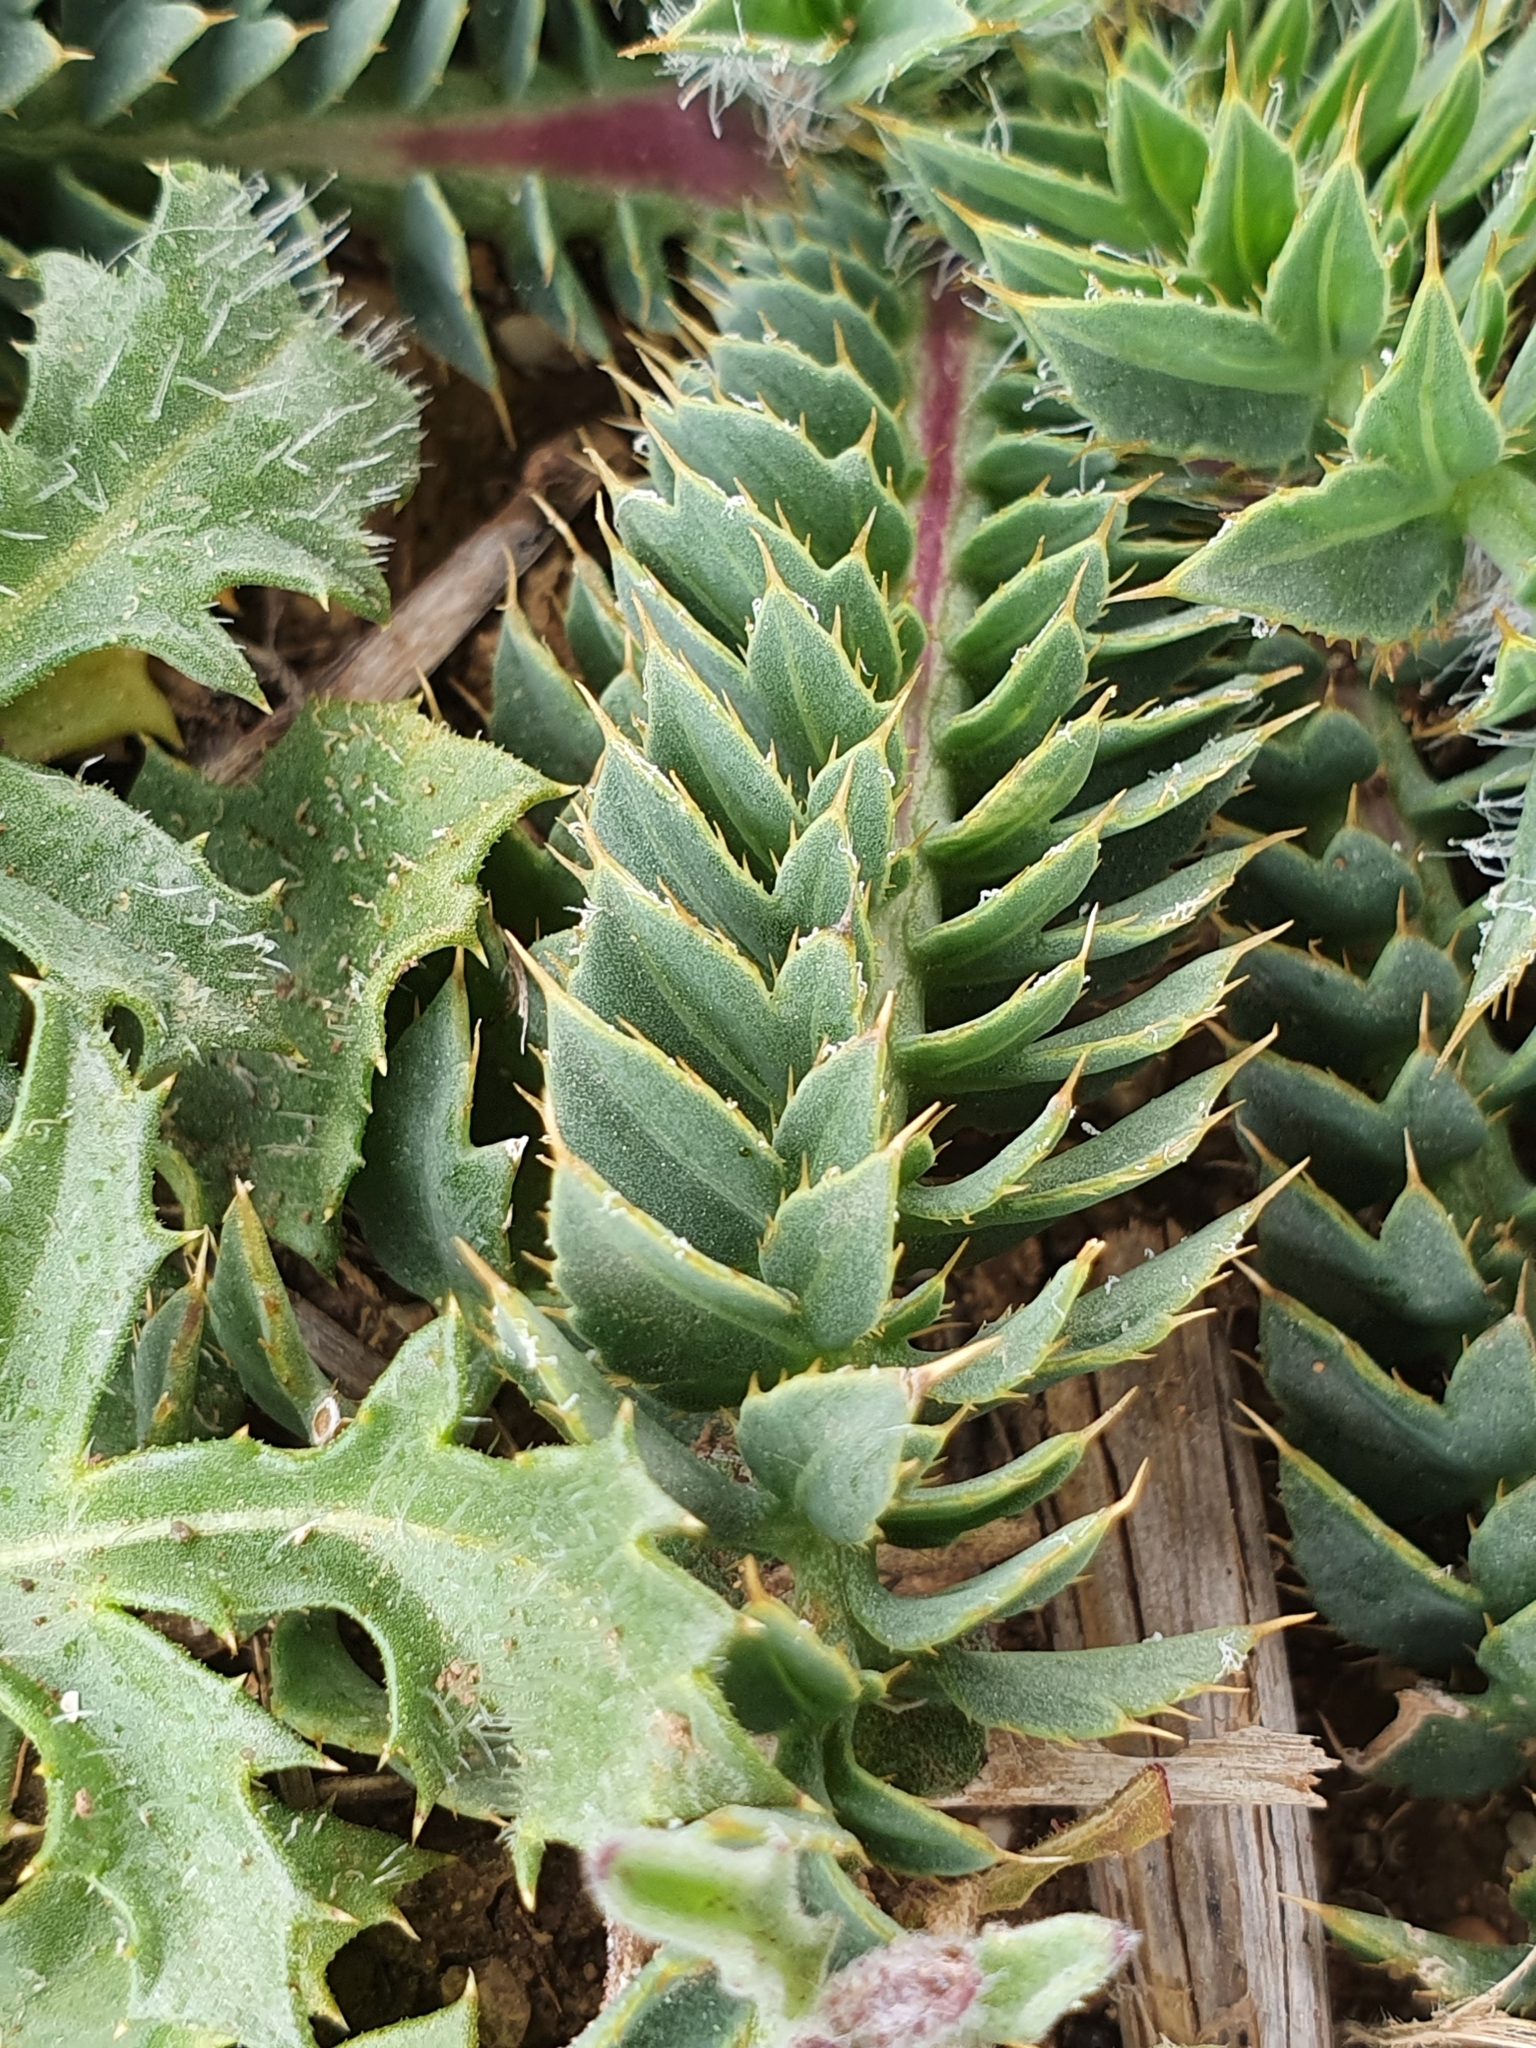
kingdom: Plantae
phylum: Tracheophyta
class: Magnoliopsida
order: Asterales
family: Asteraceae
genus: Carduncellus
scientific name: Carduncellus
